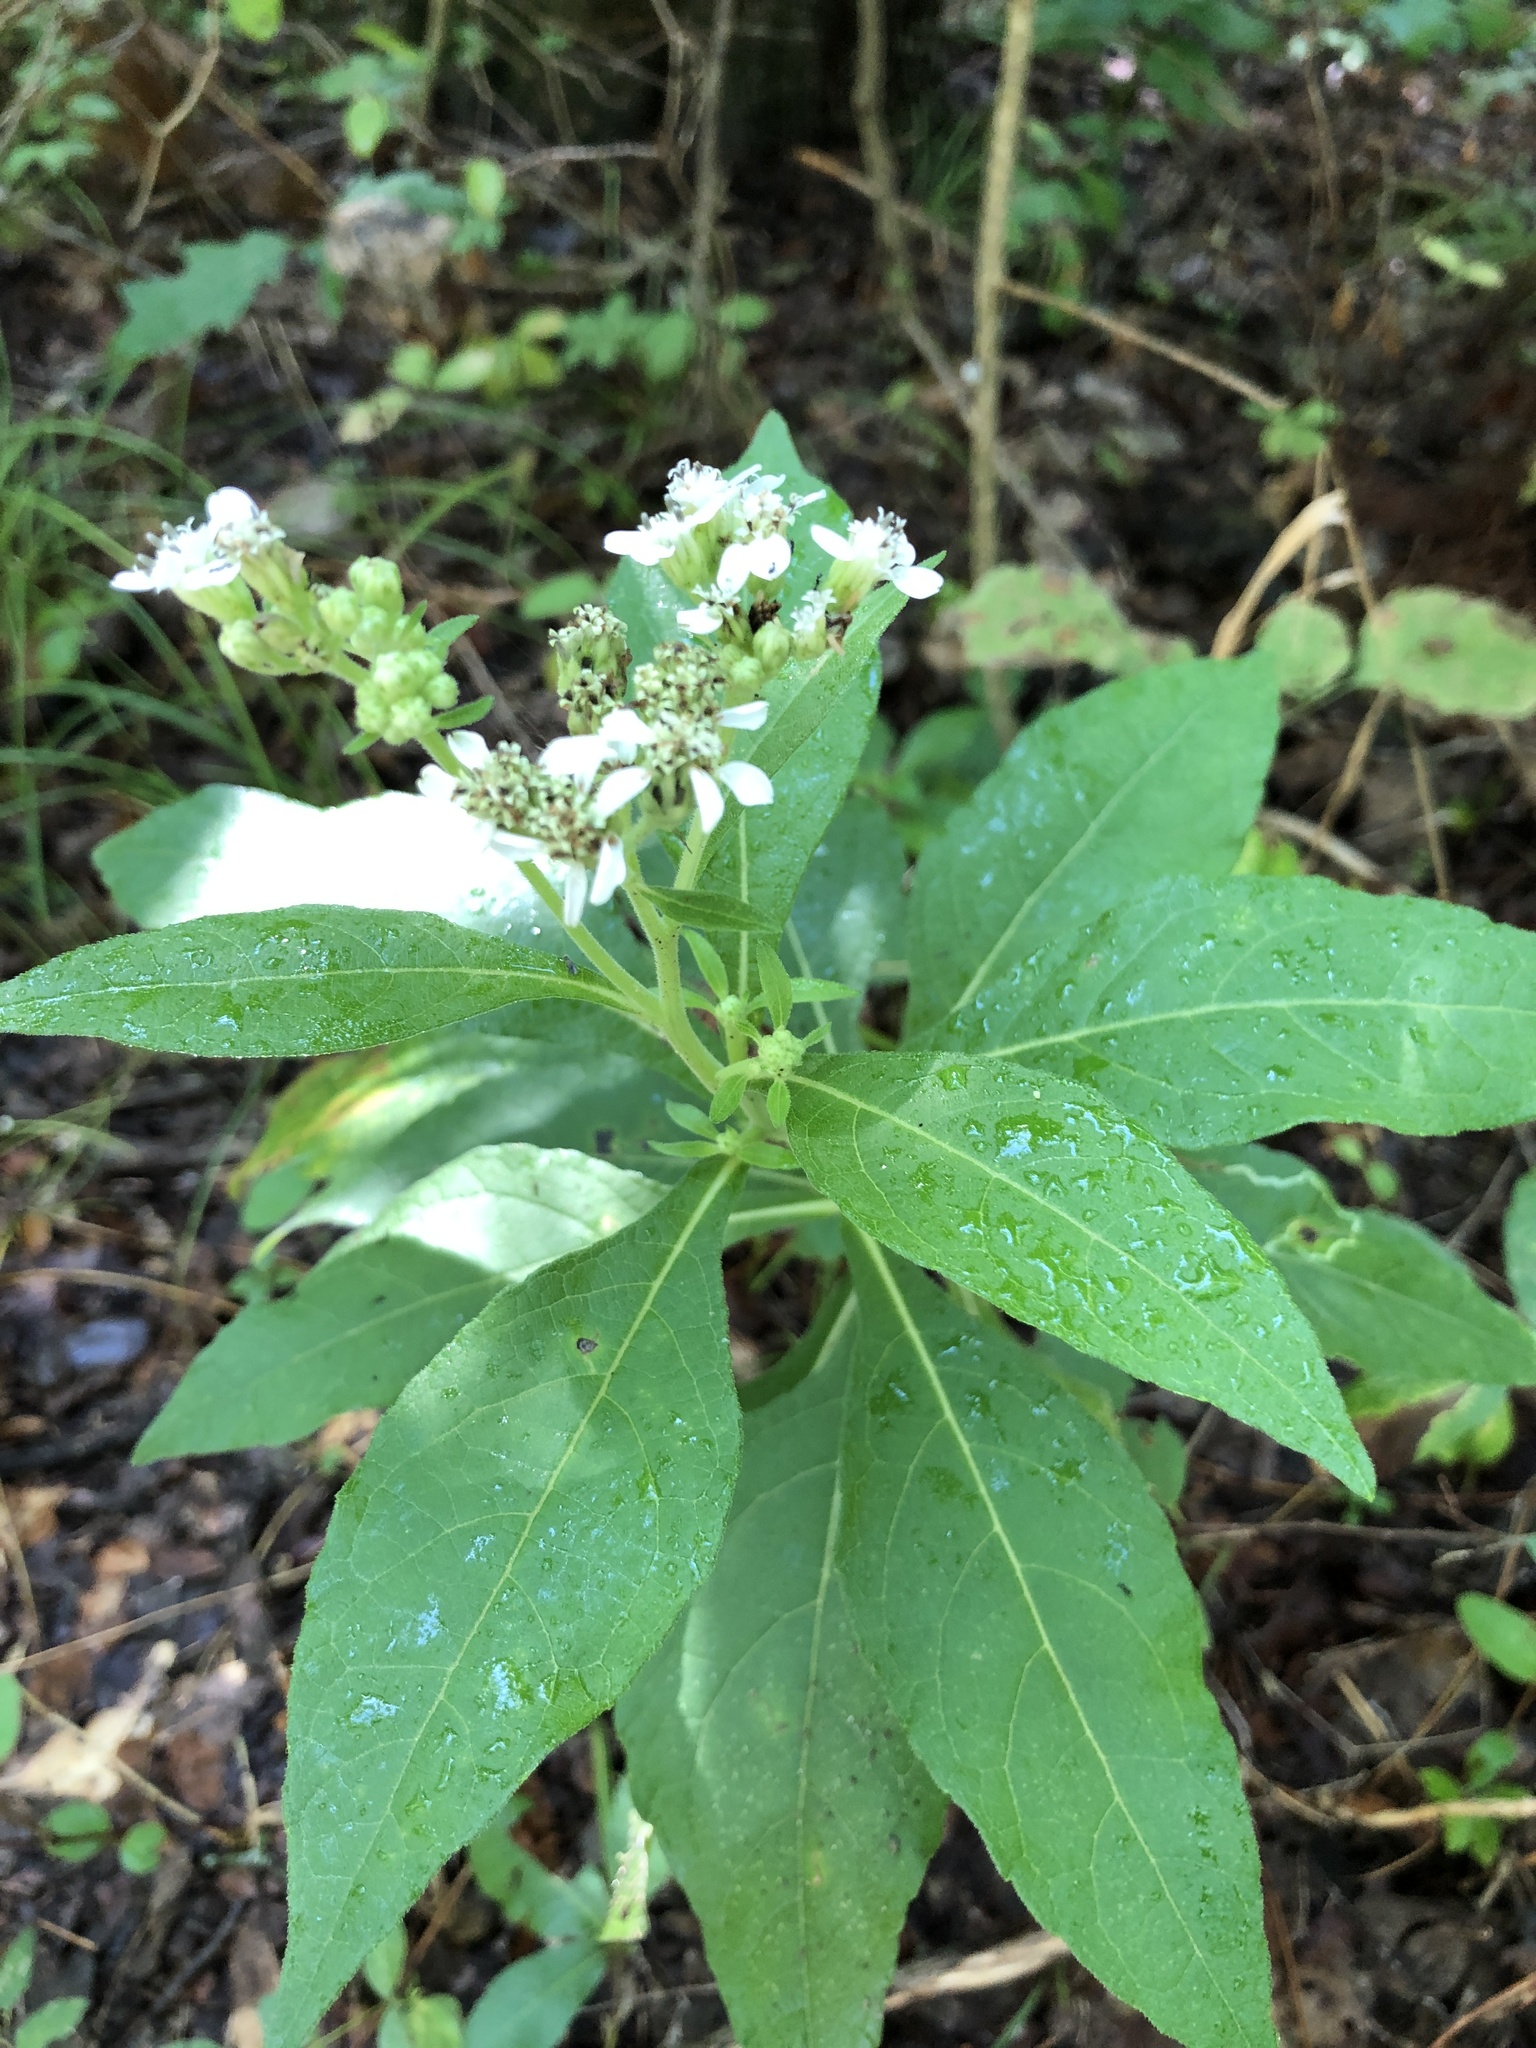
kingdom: Plantae
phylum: Tracheophyta
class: Magnoliopsida
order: Asterales
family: Asteraceae
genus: Verbesina
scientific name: Verbesina virginica
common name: Frostweed
